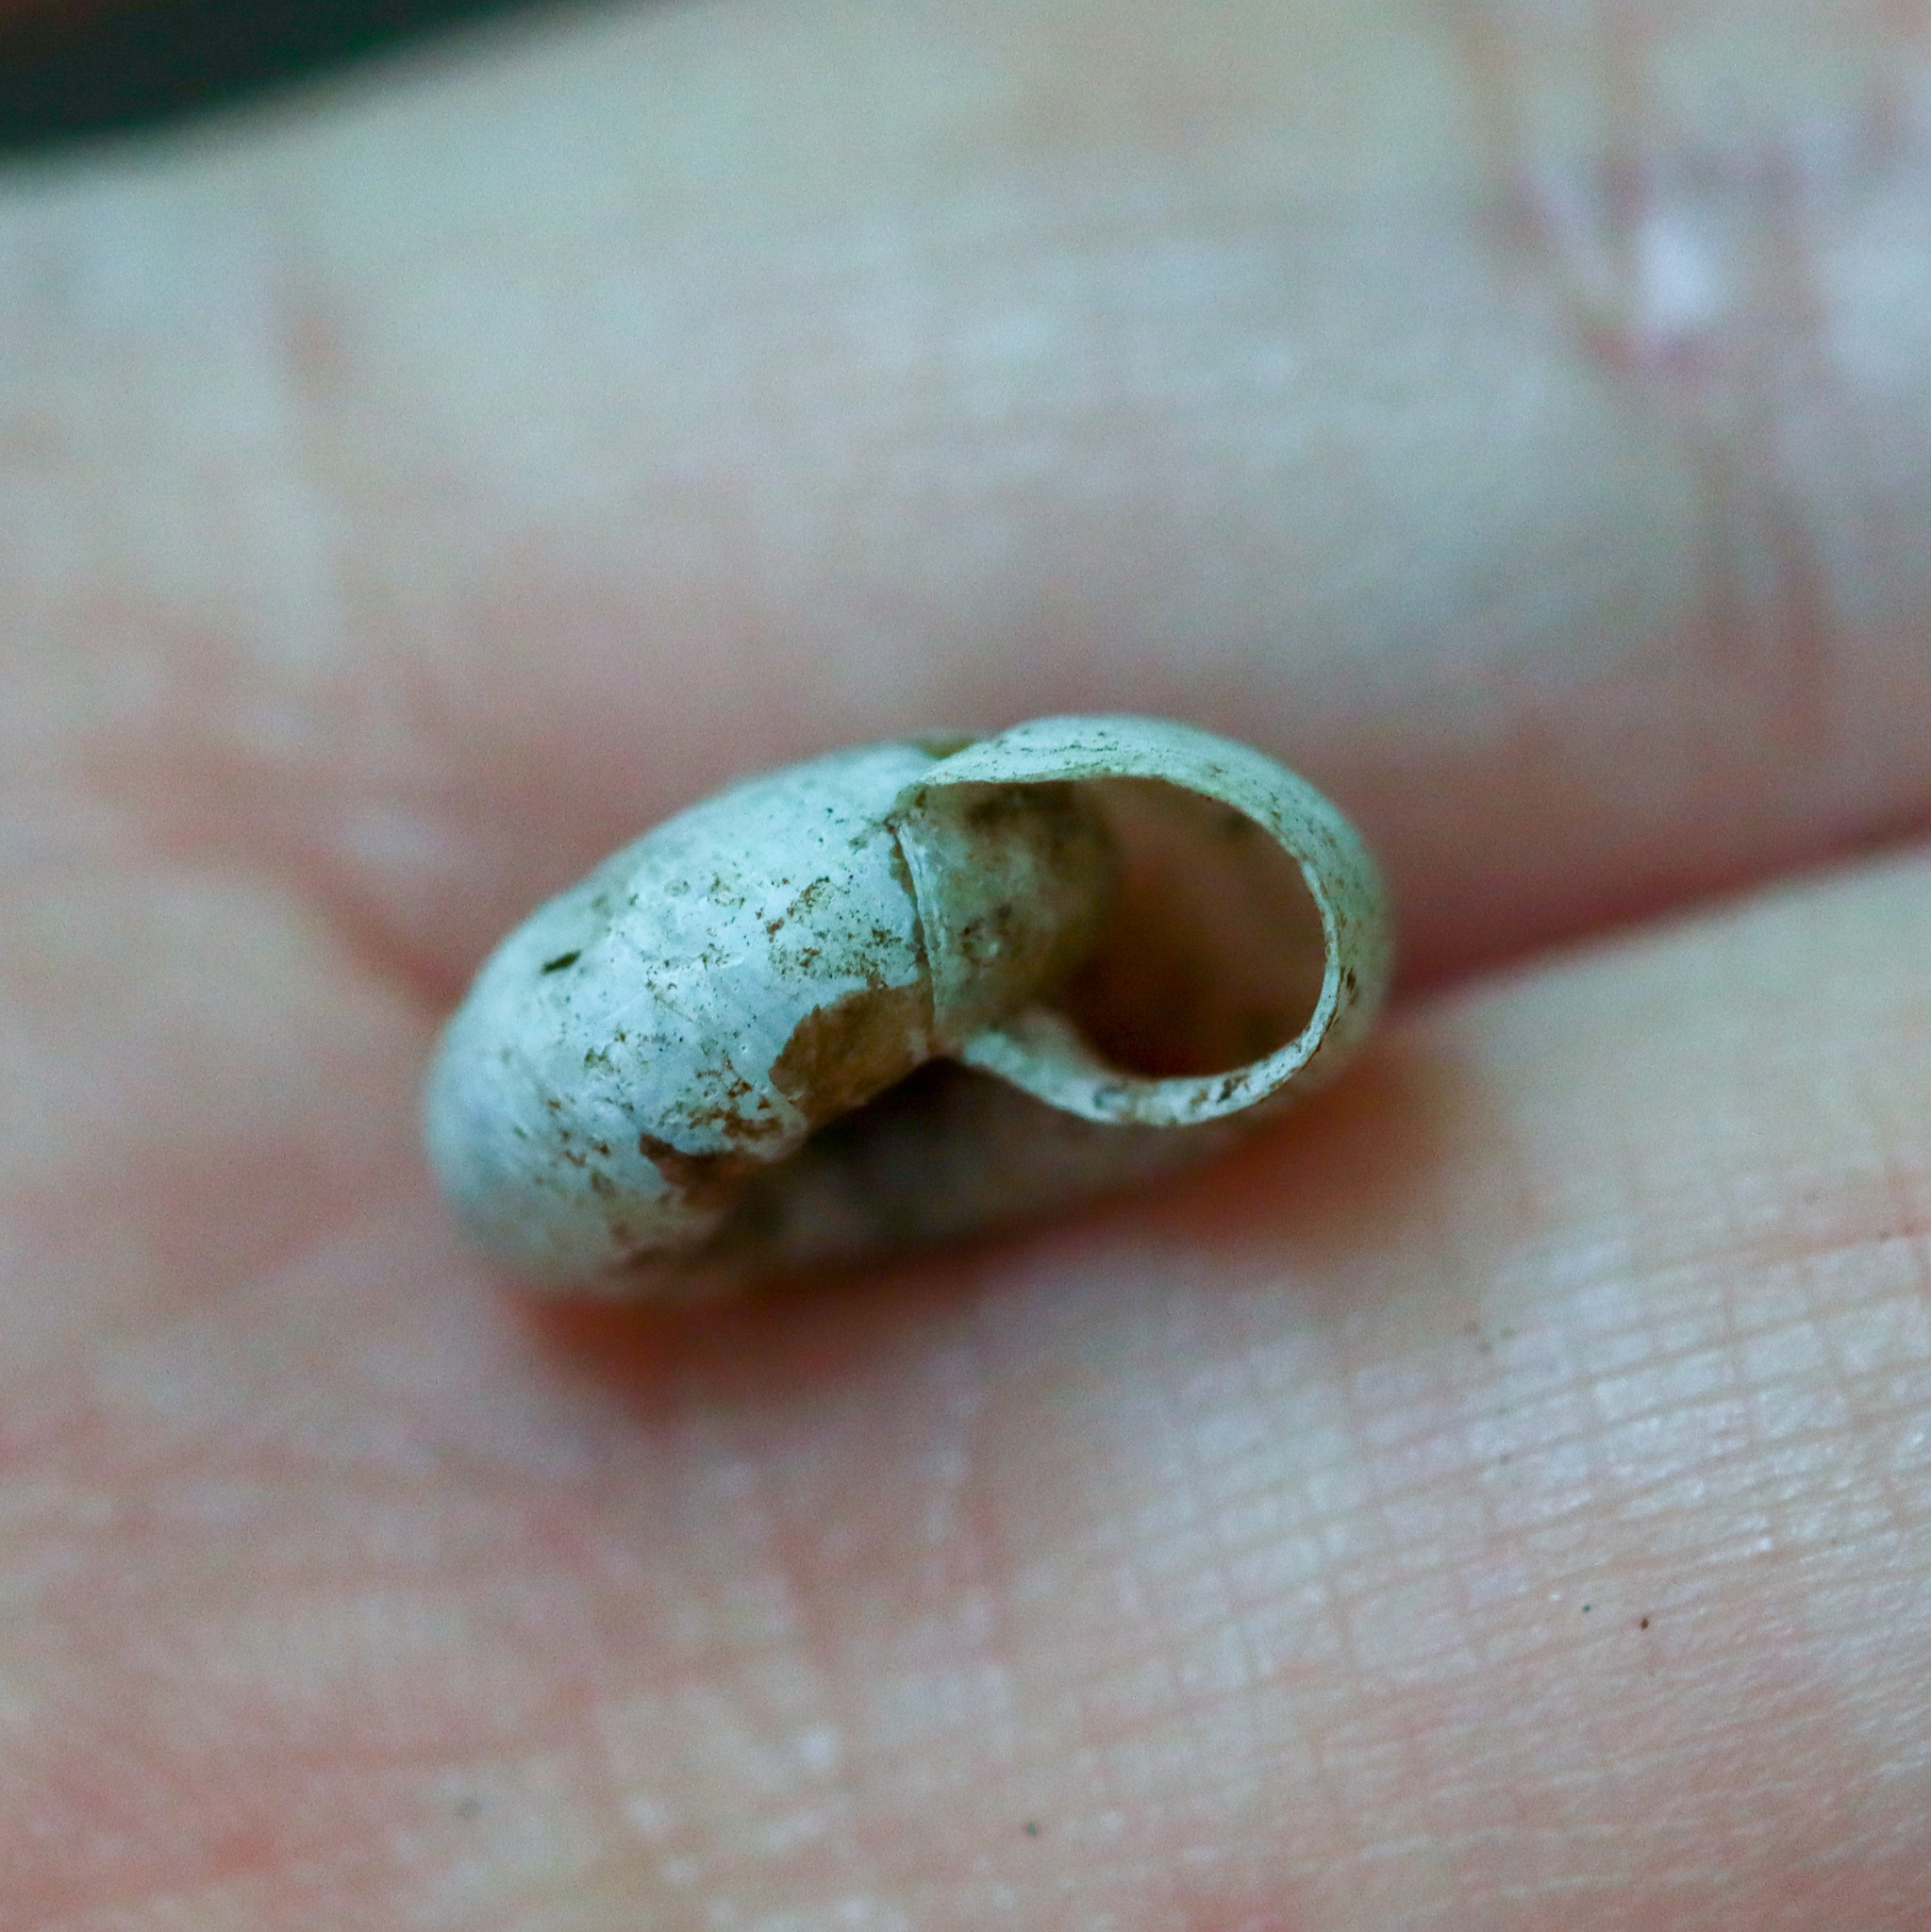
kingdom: Animalia
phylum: Mollusca
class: Gastropoda
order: Stylommatophora
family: Discidae
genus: Anguispira
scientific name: Anguispira alternata
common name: Flamed tigersnail
